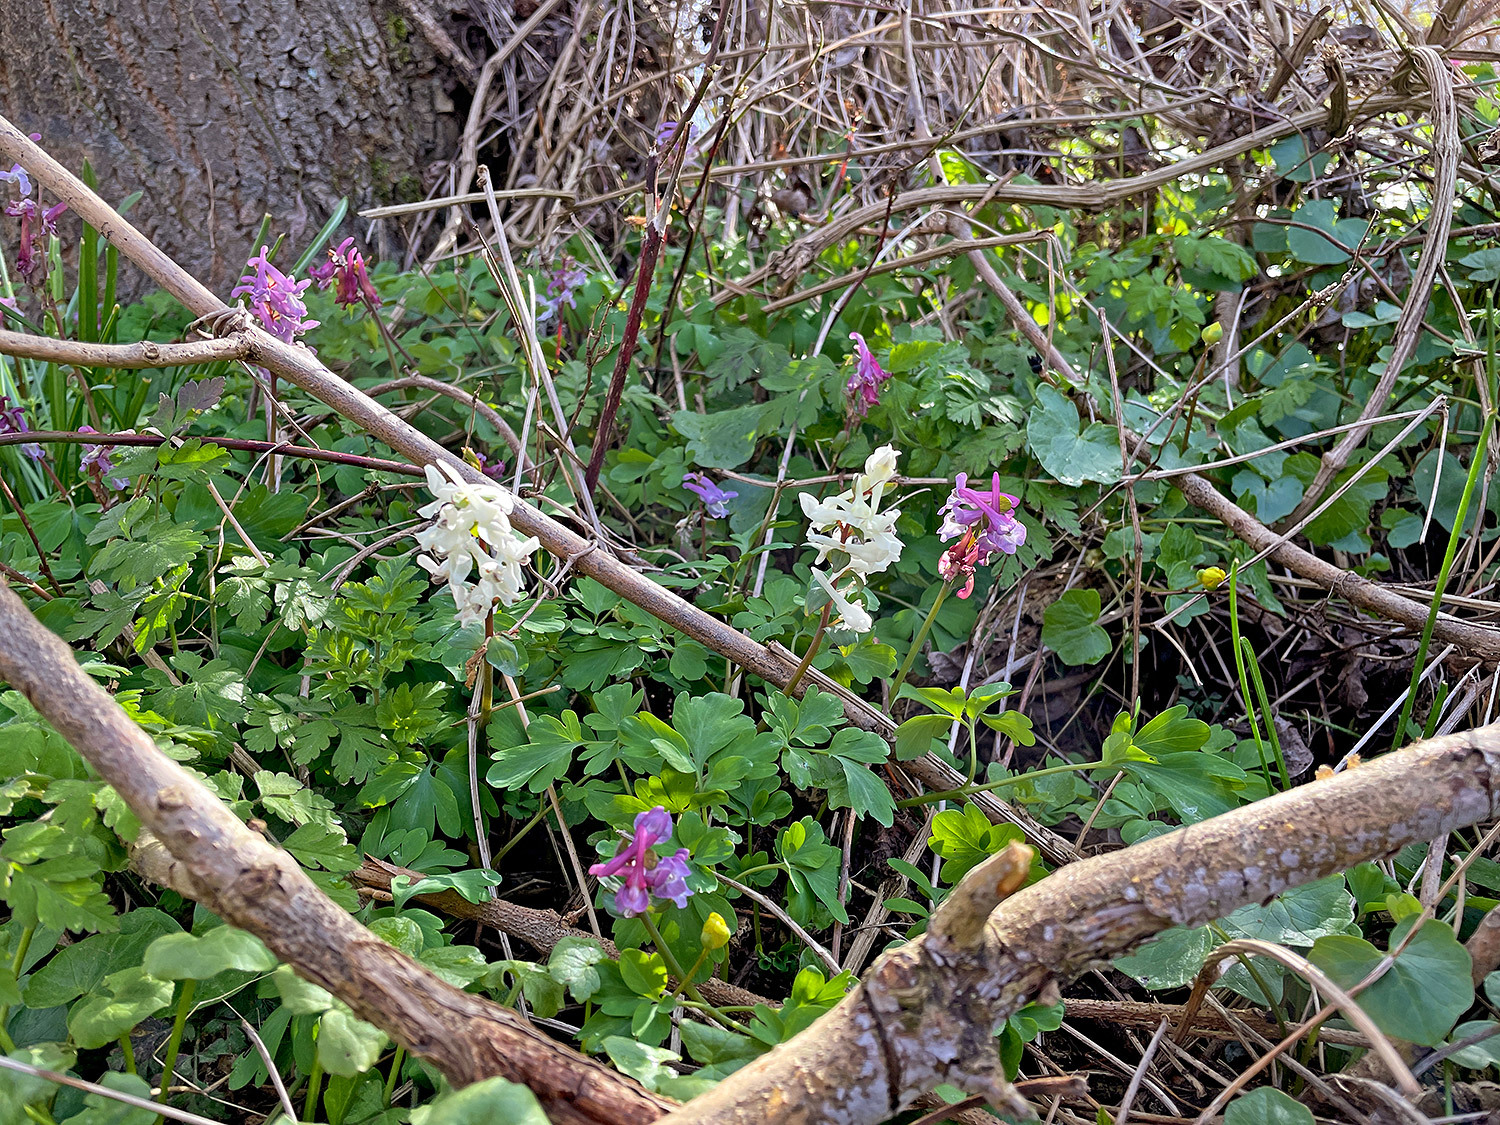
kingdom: Plantae
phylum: Tracheophyta
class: Magnoliopsida
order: Ranunculales
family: Papaveraceae
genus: Corydalis
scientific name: Corydalis cava
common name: Hollowroot
